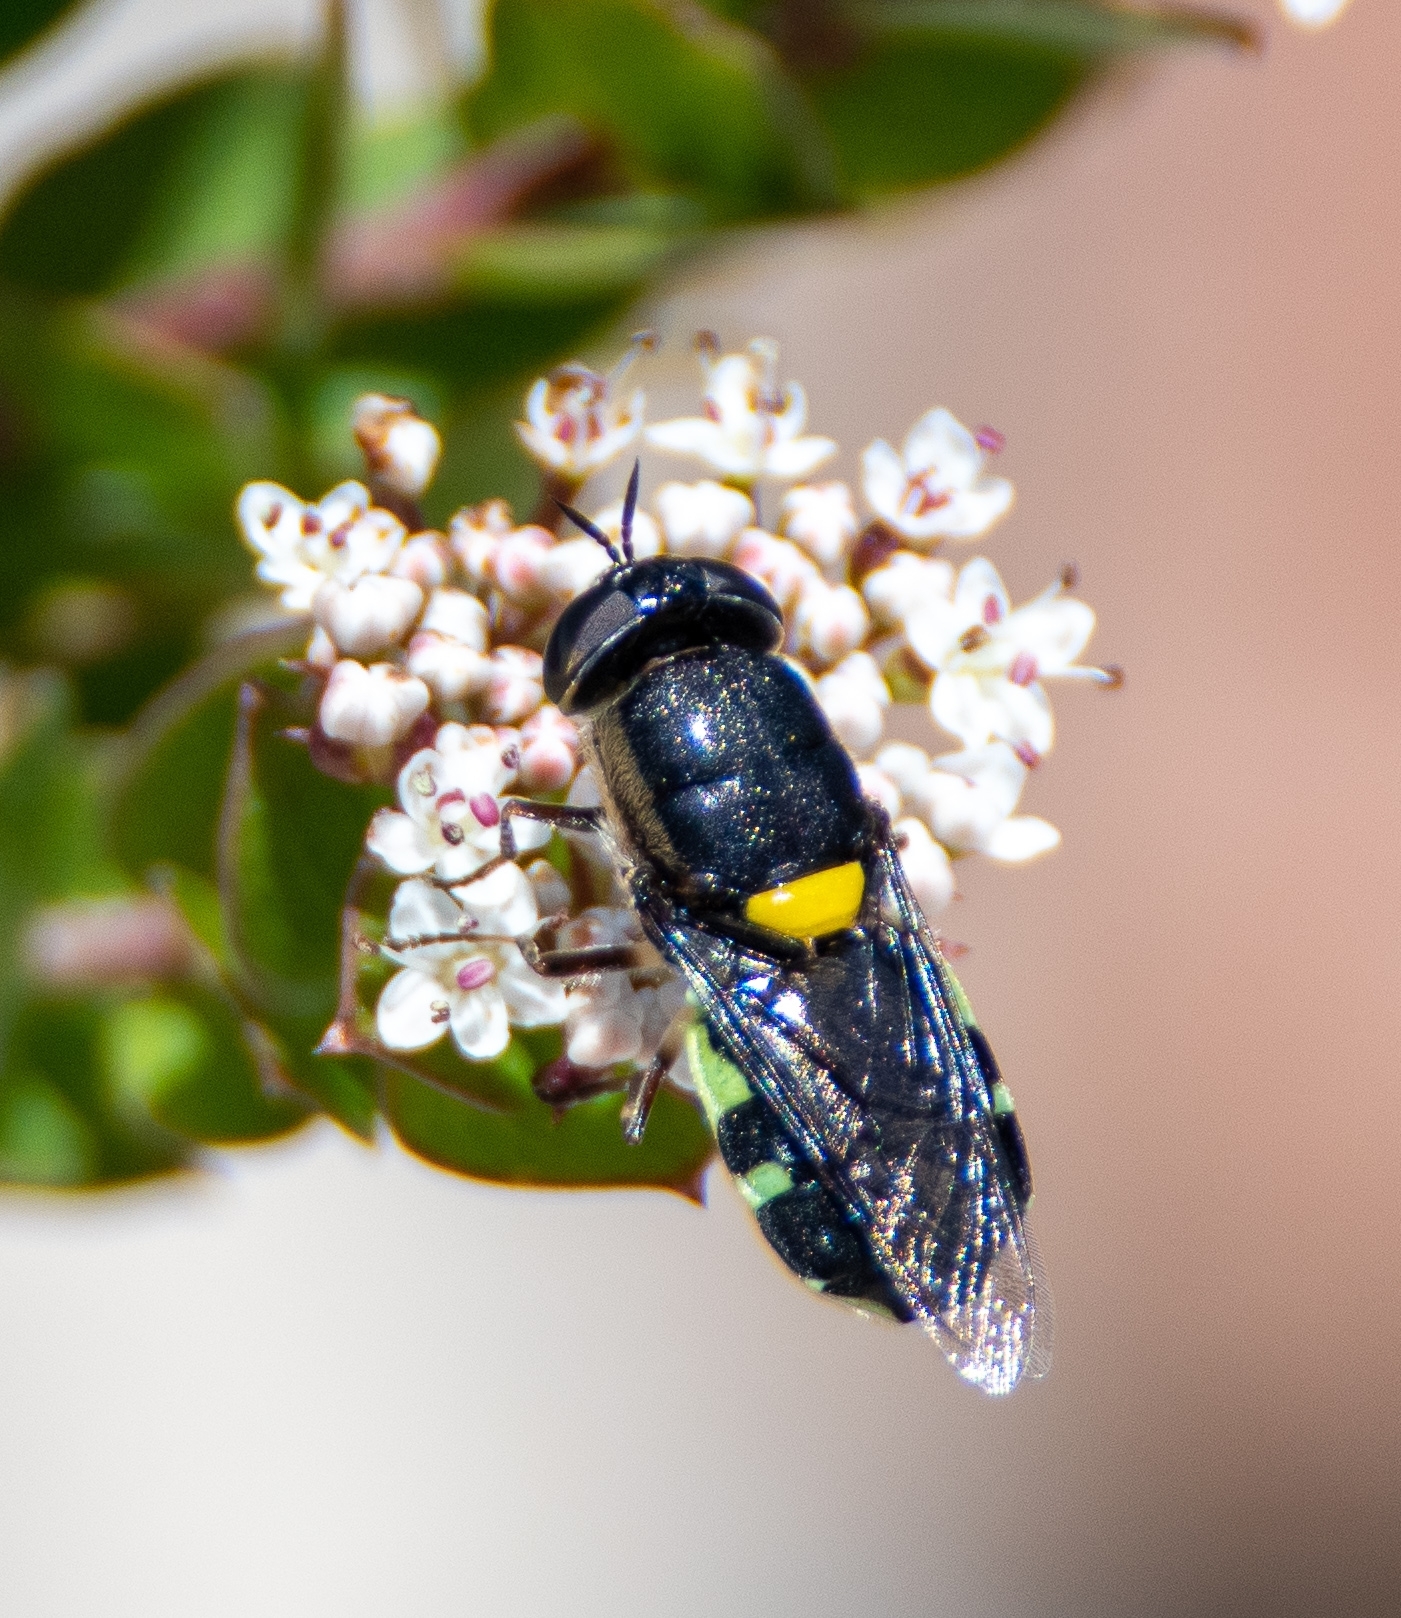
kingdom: Animalia
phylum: Arthropoda
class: Insecta
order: Diptera
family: Stratiomyidae
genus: Odontomyia
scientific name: Odontomyia hunteri
